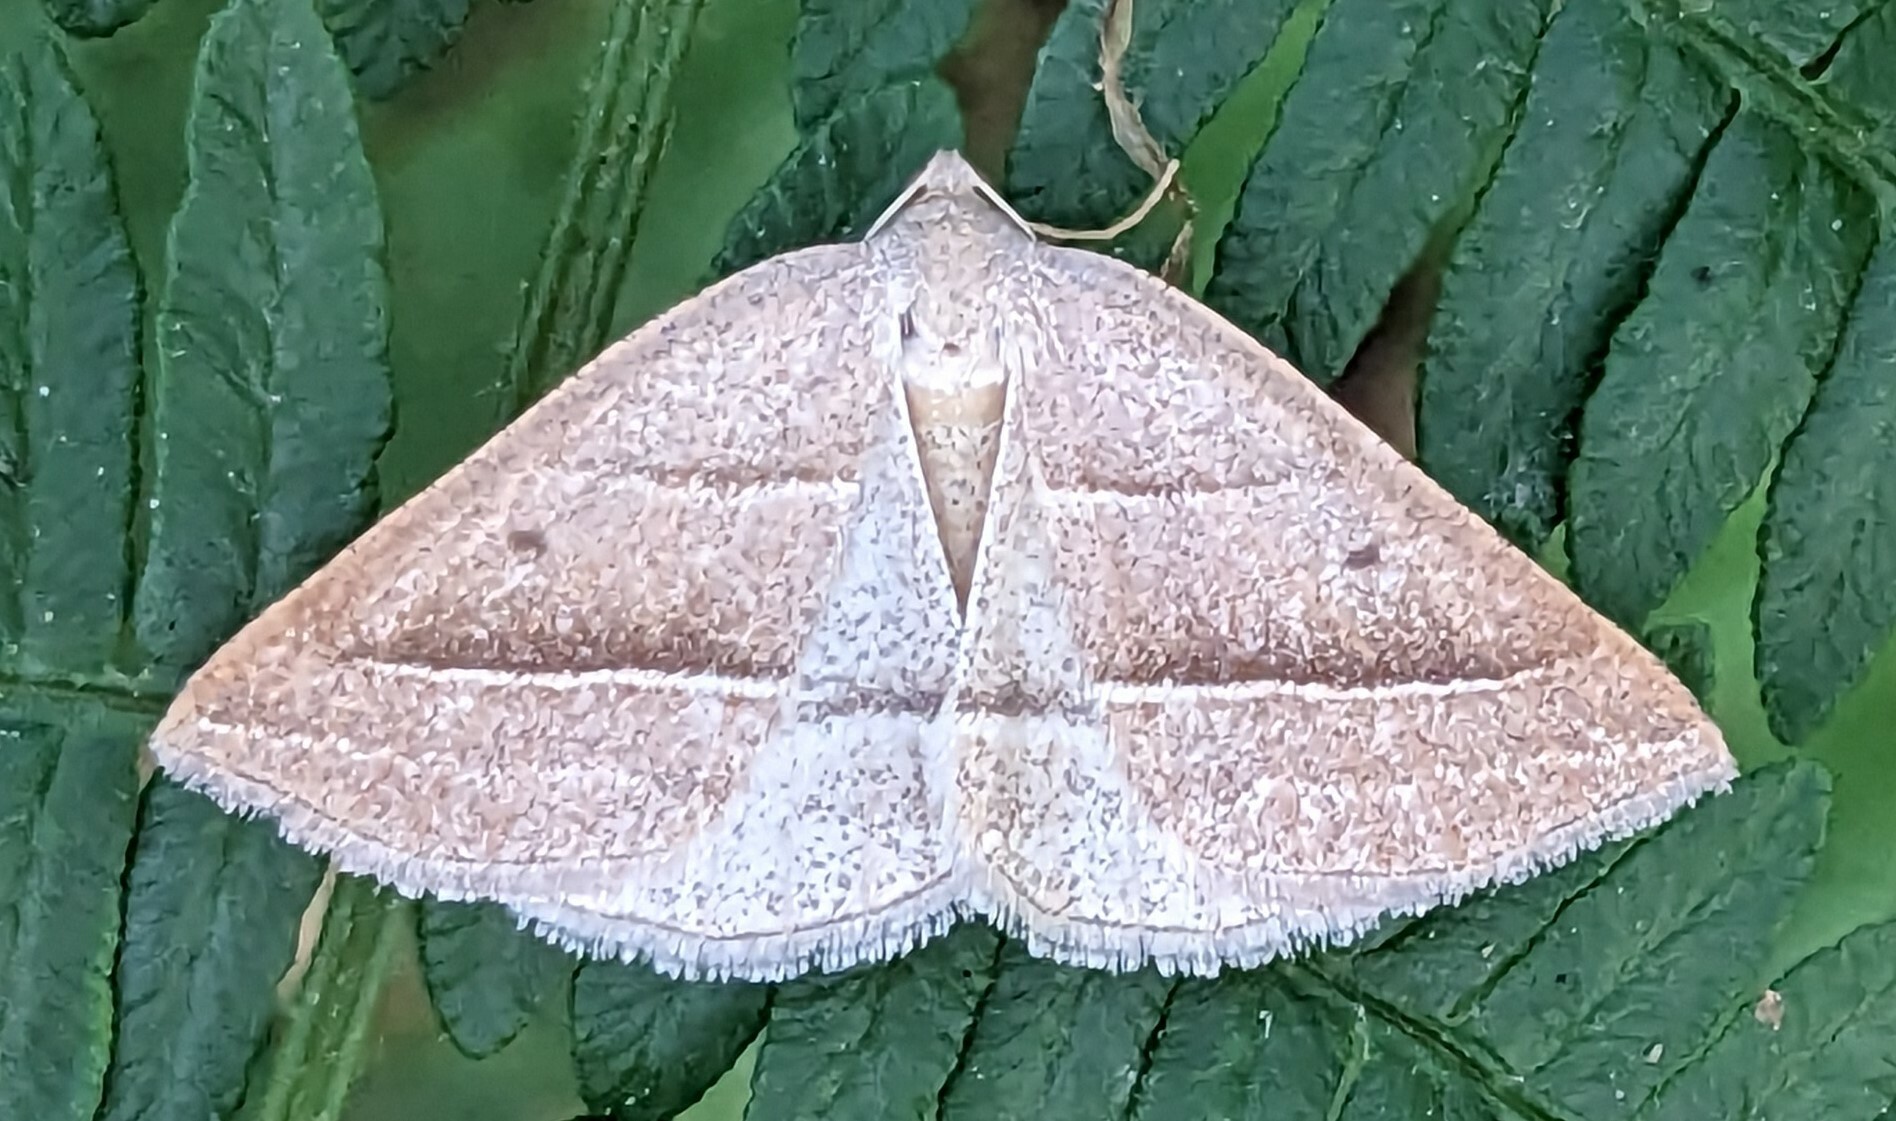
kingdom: Animalia
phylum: Arthropoda
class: Insecta
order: Lepidoptera
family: Pterophoridae
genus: Pterophorus
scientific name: Pterophorus Petrophora chlorosata
